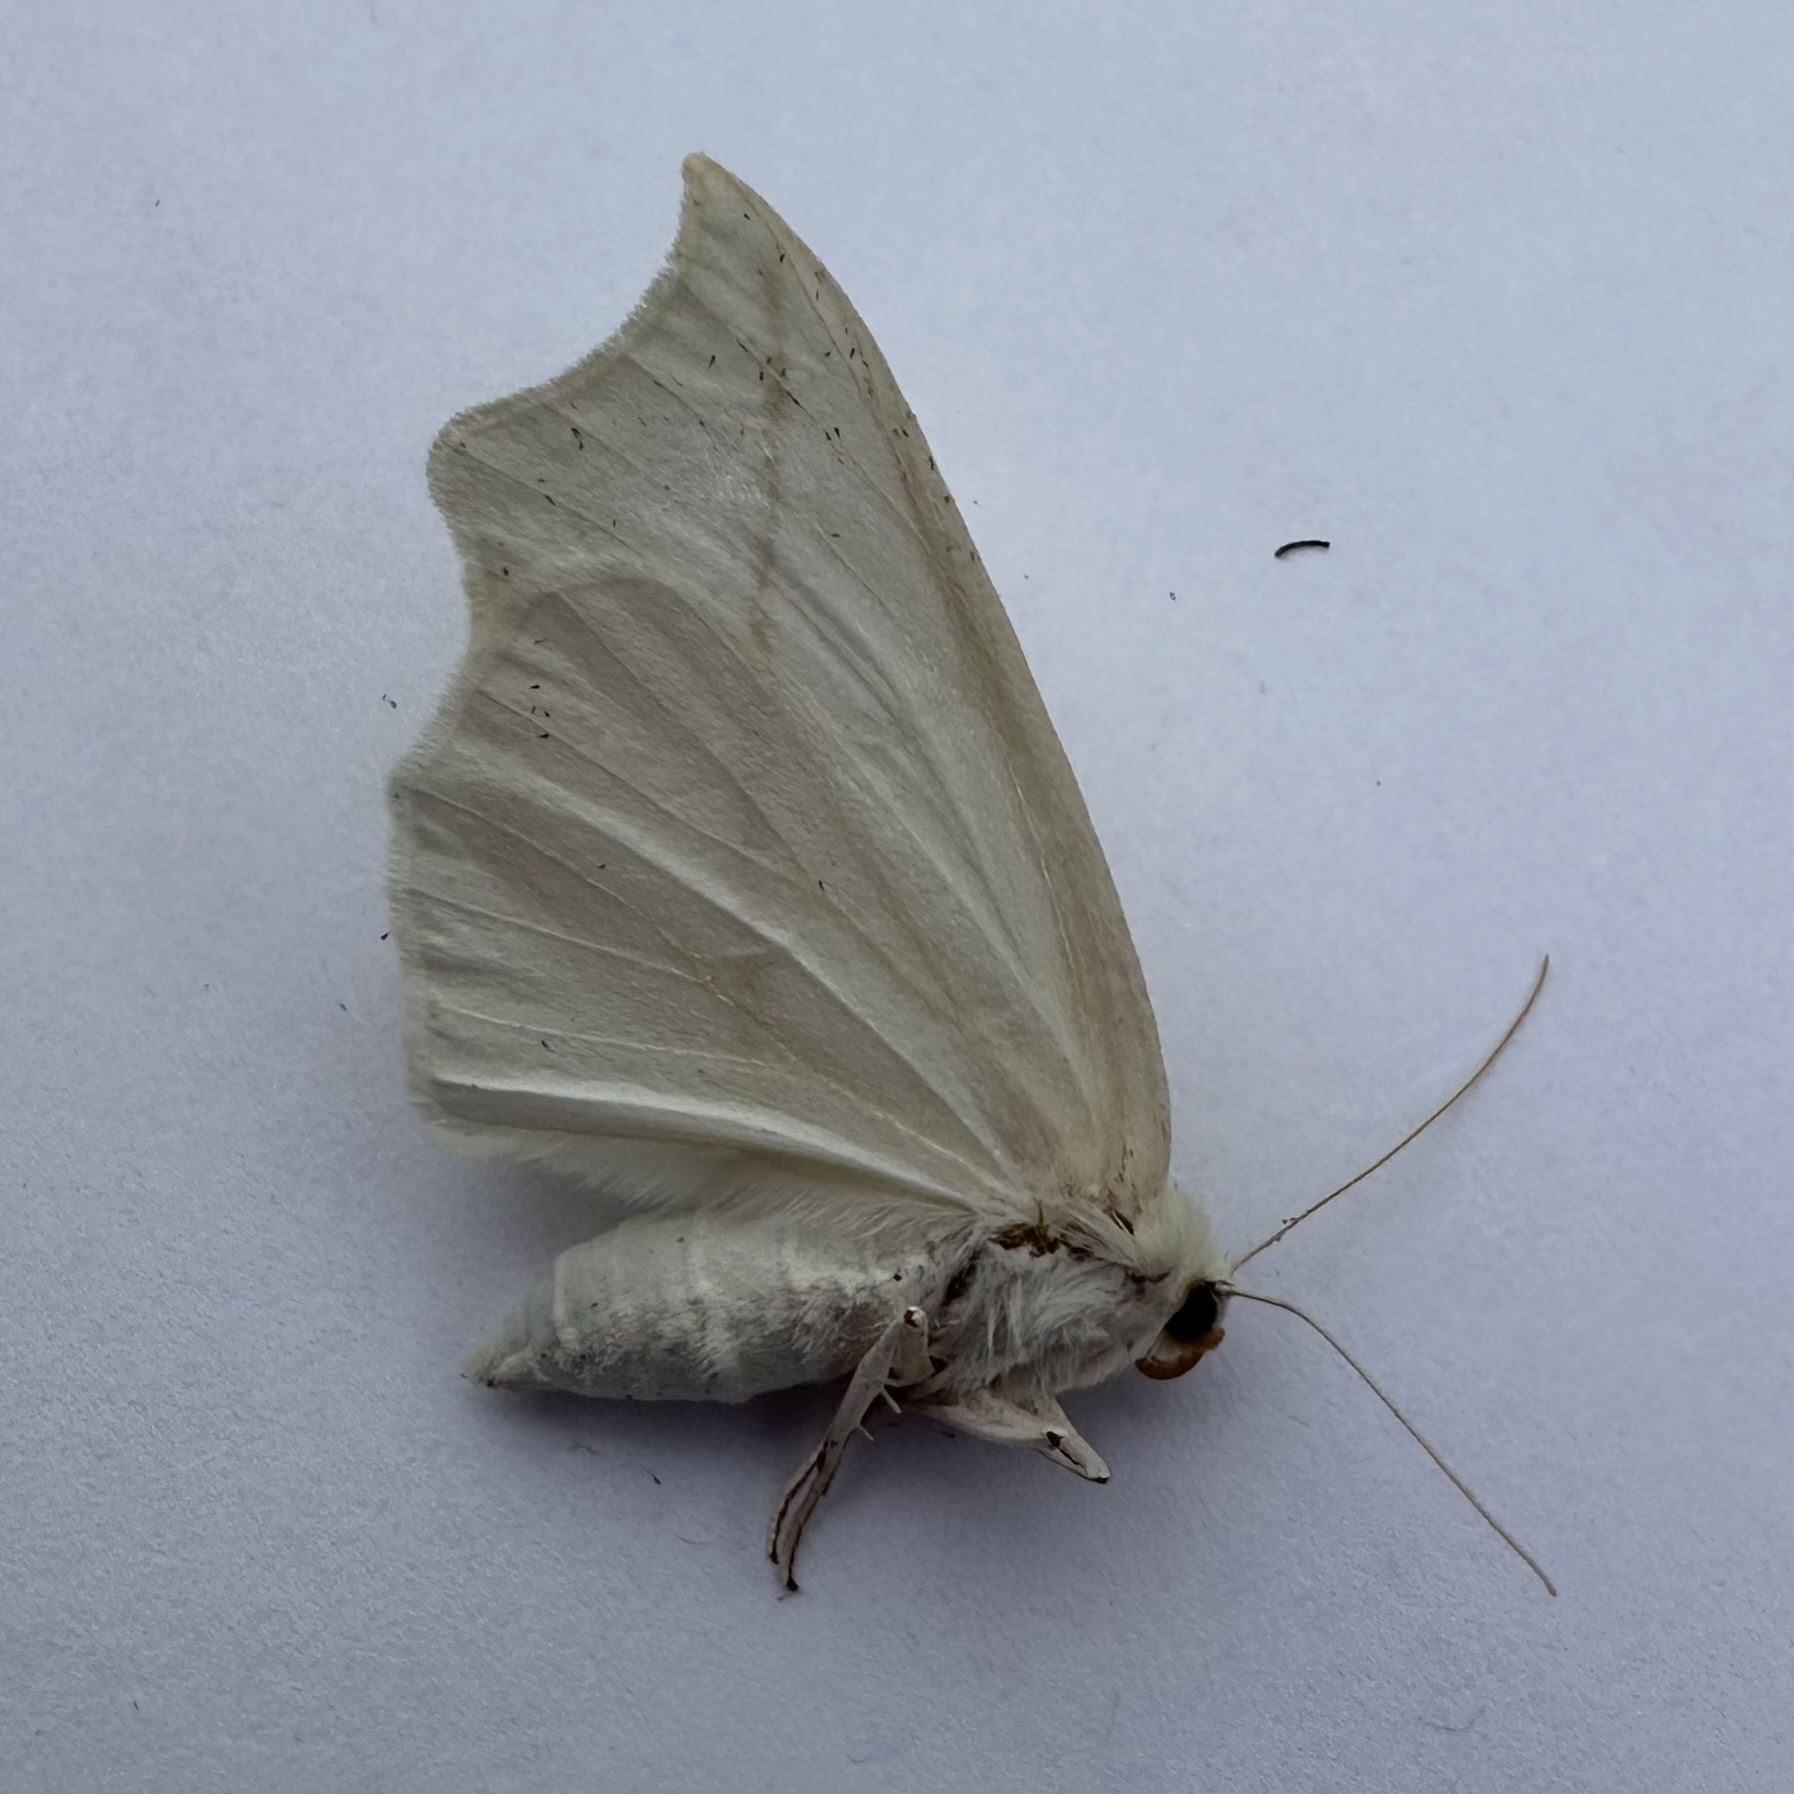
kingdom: Animalia
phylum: Arthropoda
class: Insecta
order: Lepidoptera
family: Geometridae
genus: Tetracis
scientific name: Tetracis cachexiata
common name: White slant-line
